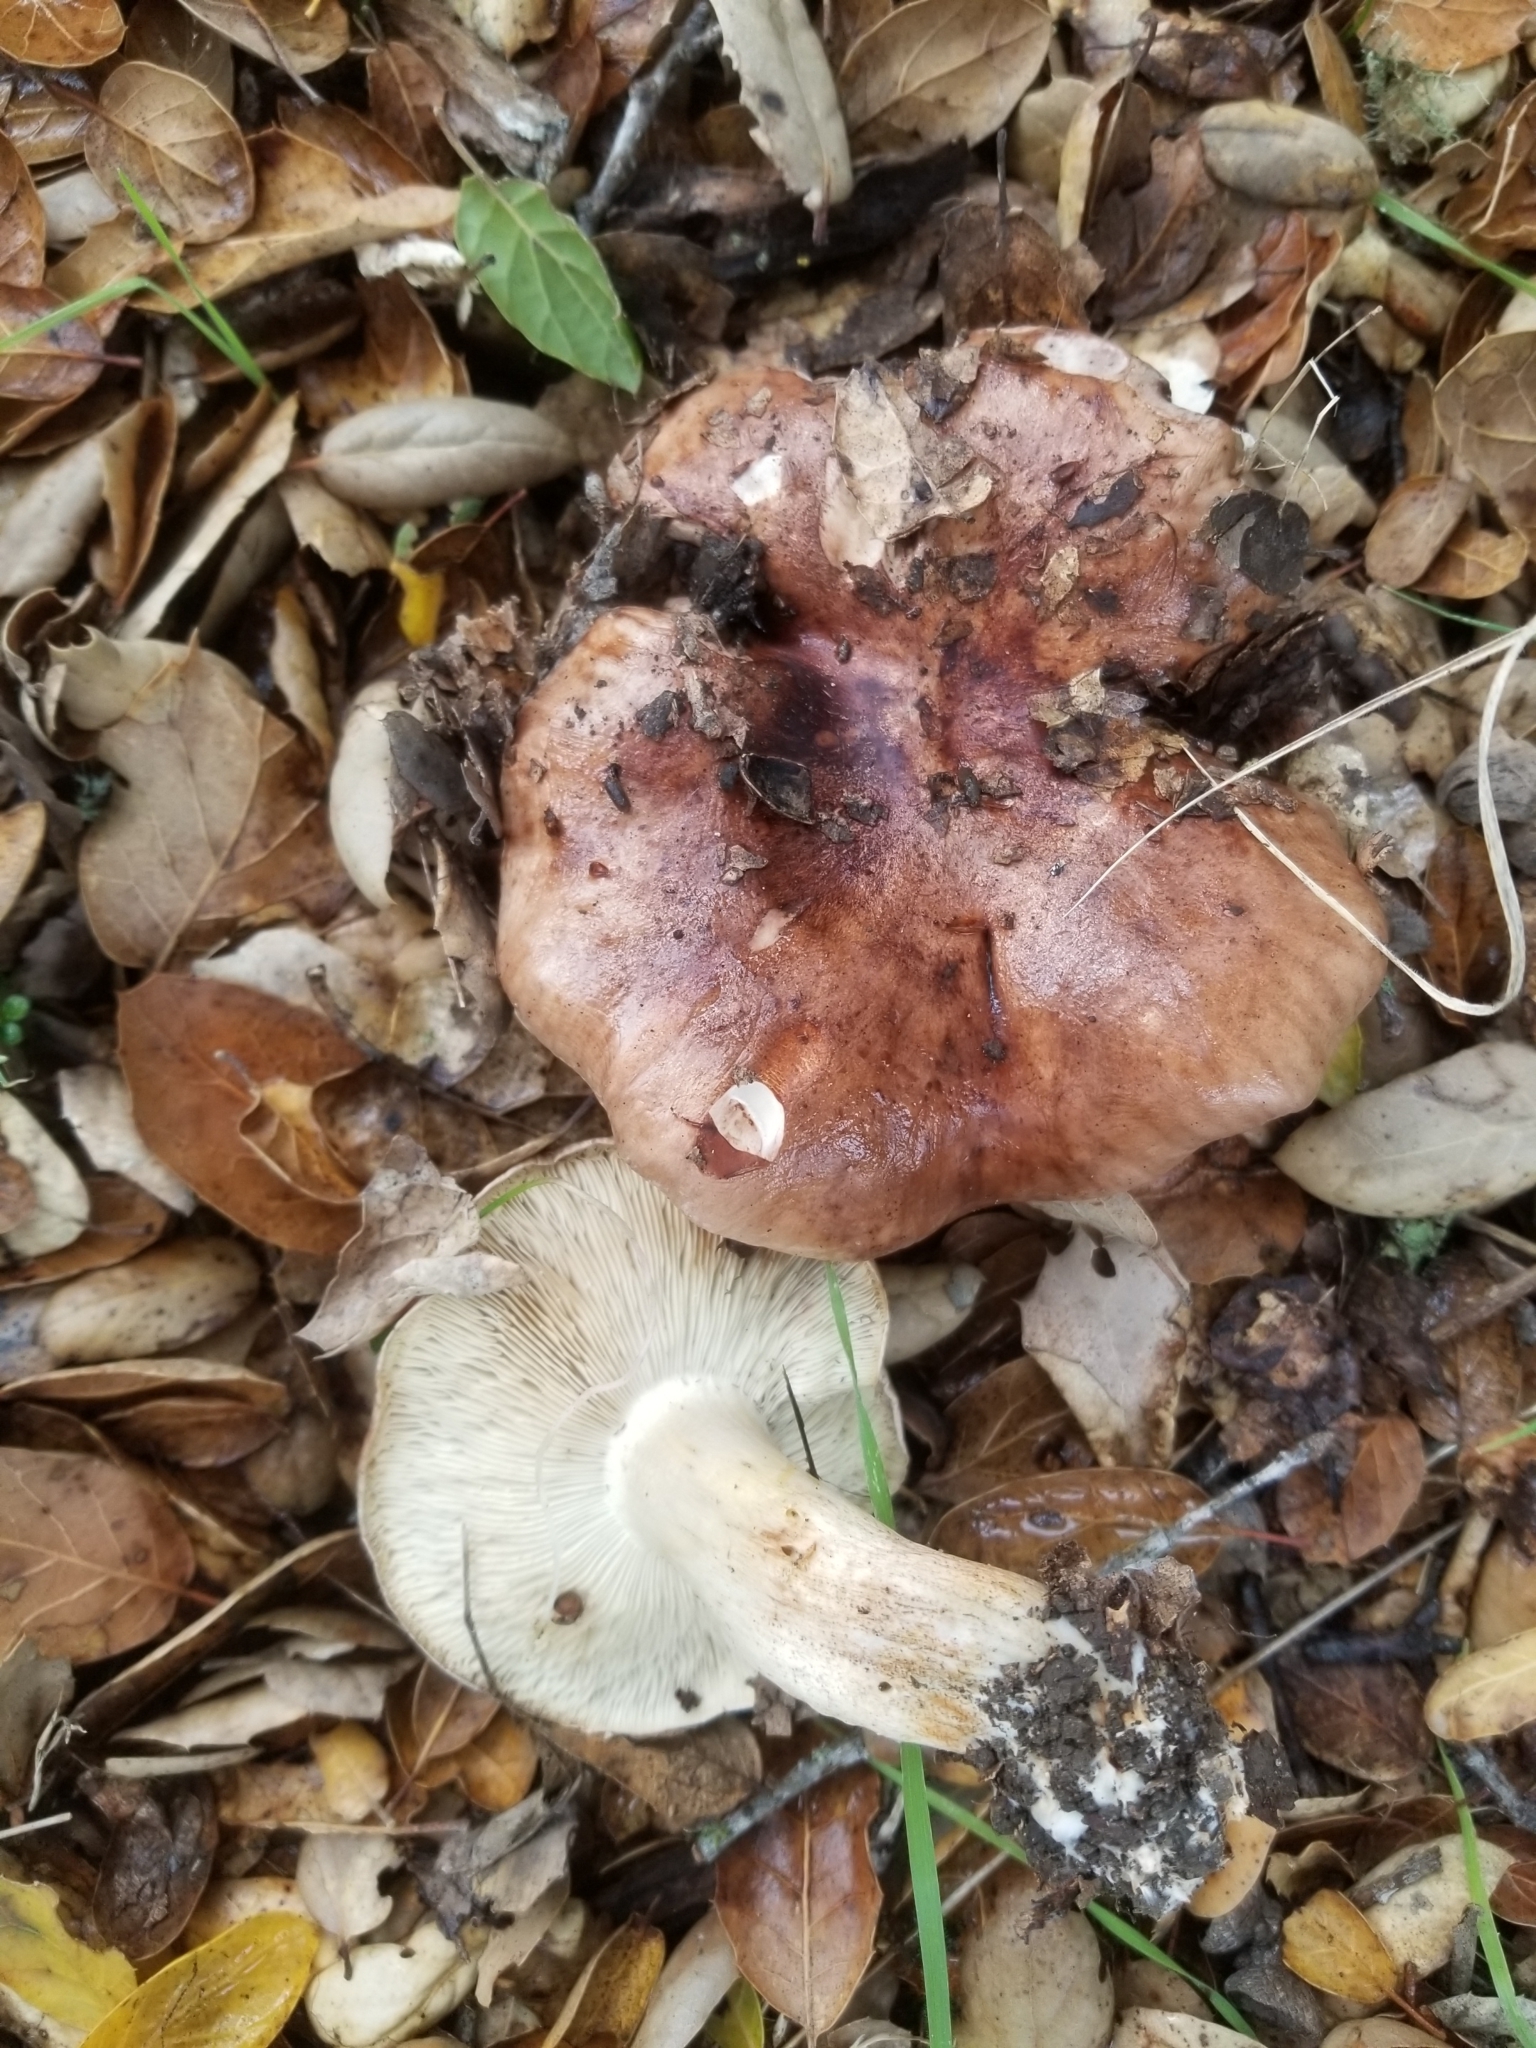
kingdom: Fungi
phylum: Basidiomycota
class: Agaricomycetes
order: Agaricales
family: Tricholomataceae
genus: Melanoleuca
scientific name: Melanoleuca dryophila
